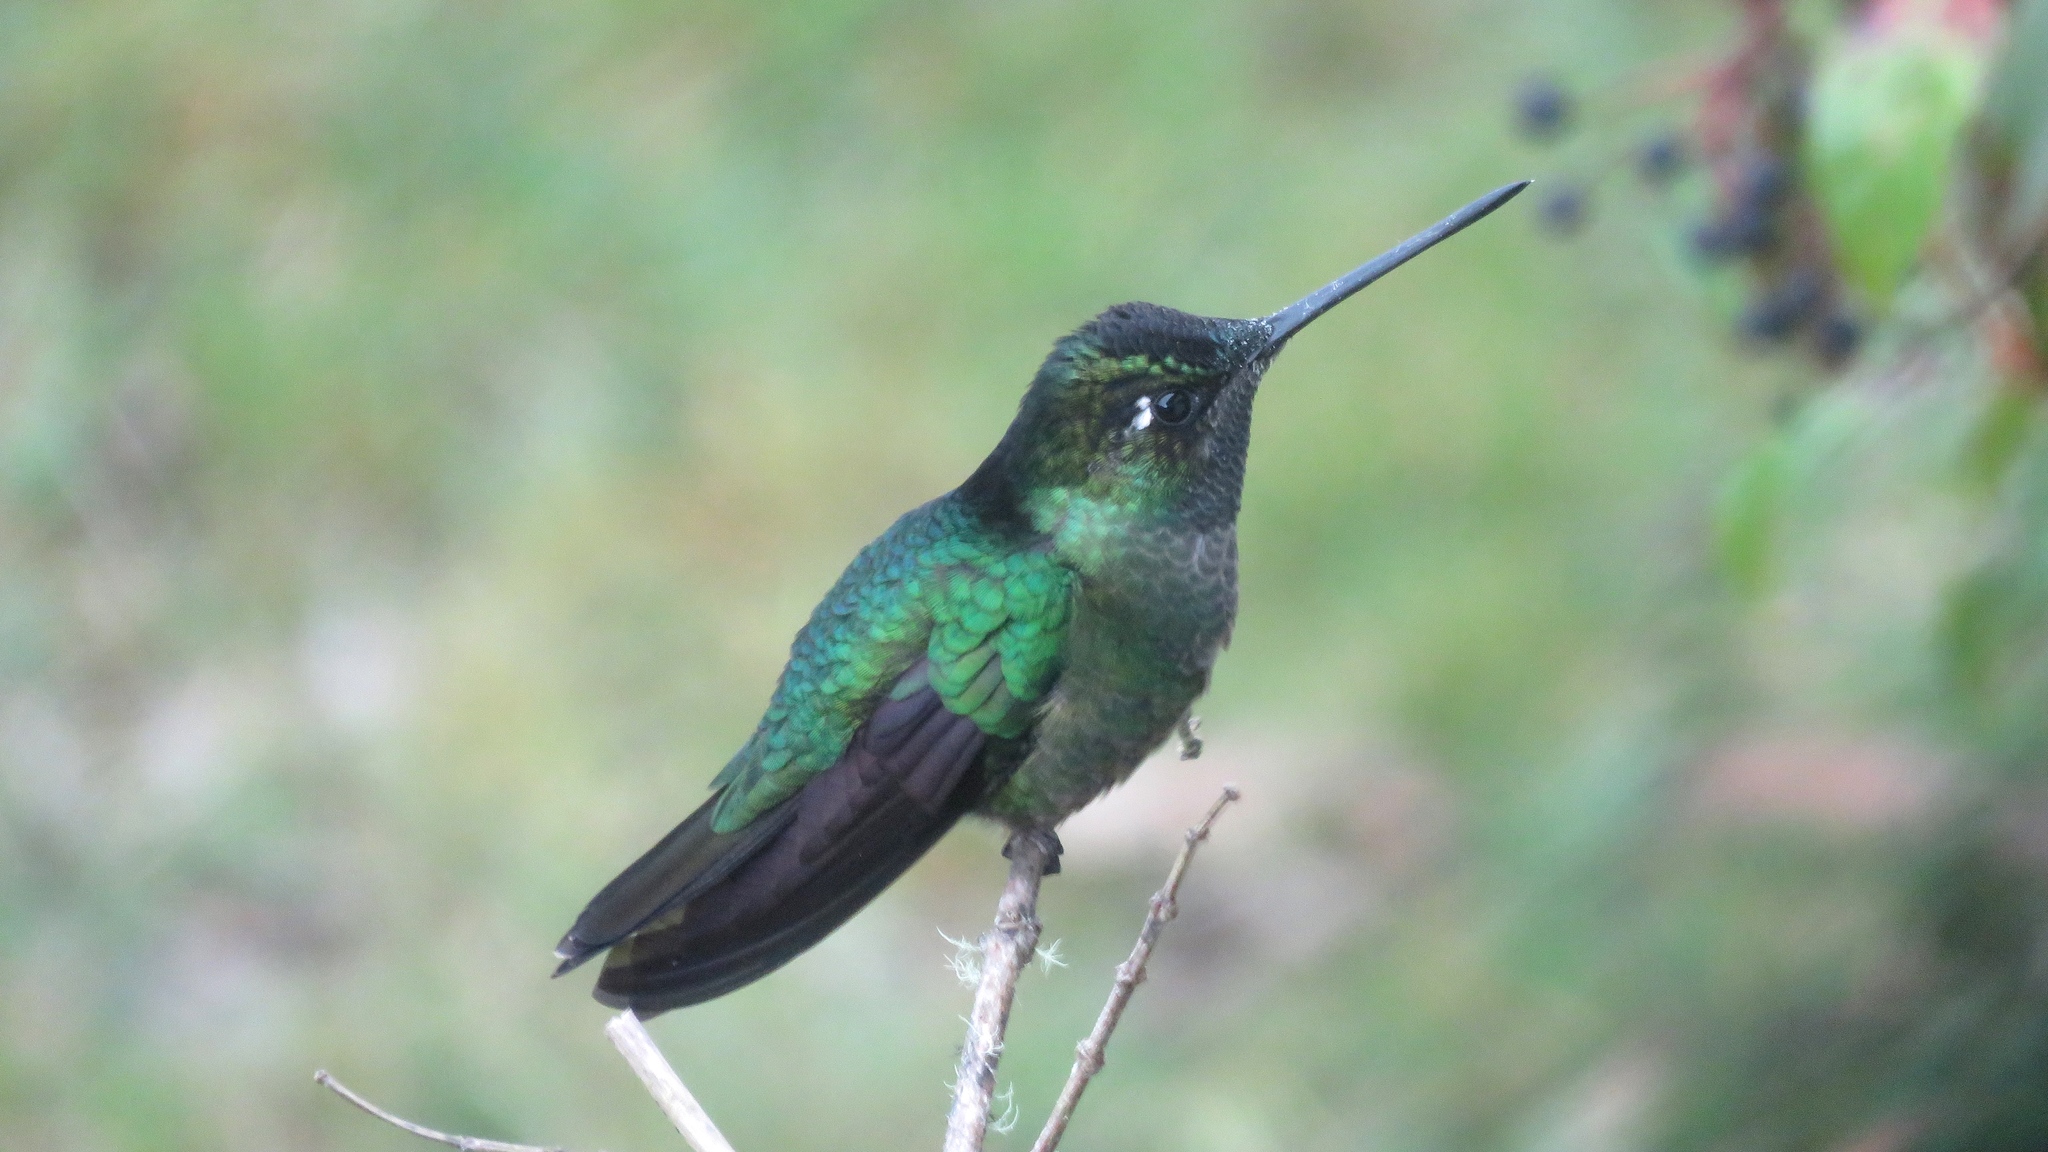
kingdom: Animalia
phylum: Chordata
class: Aves
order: Apodiformes
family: Trochilidae
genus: Eugenes
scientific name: Eugenes spectabilis
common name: Talamanca hummingbird
